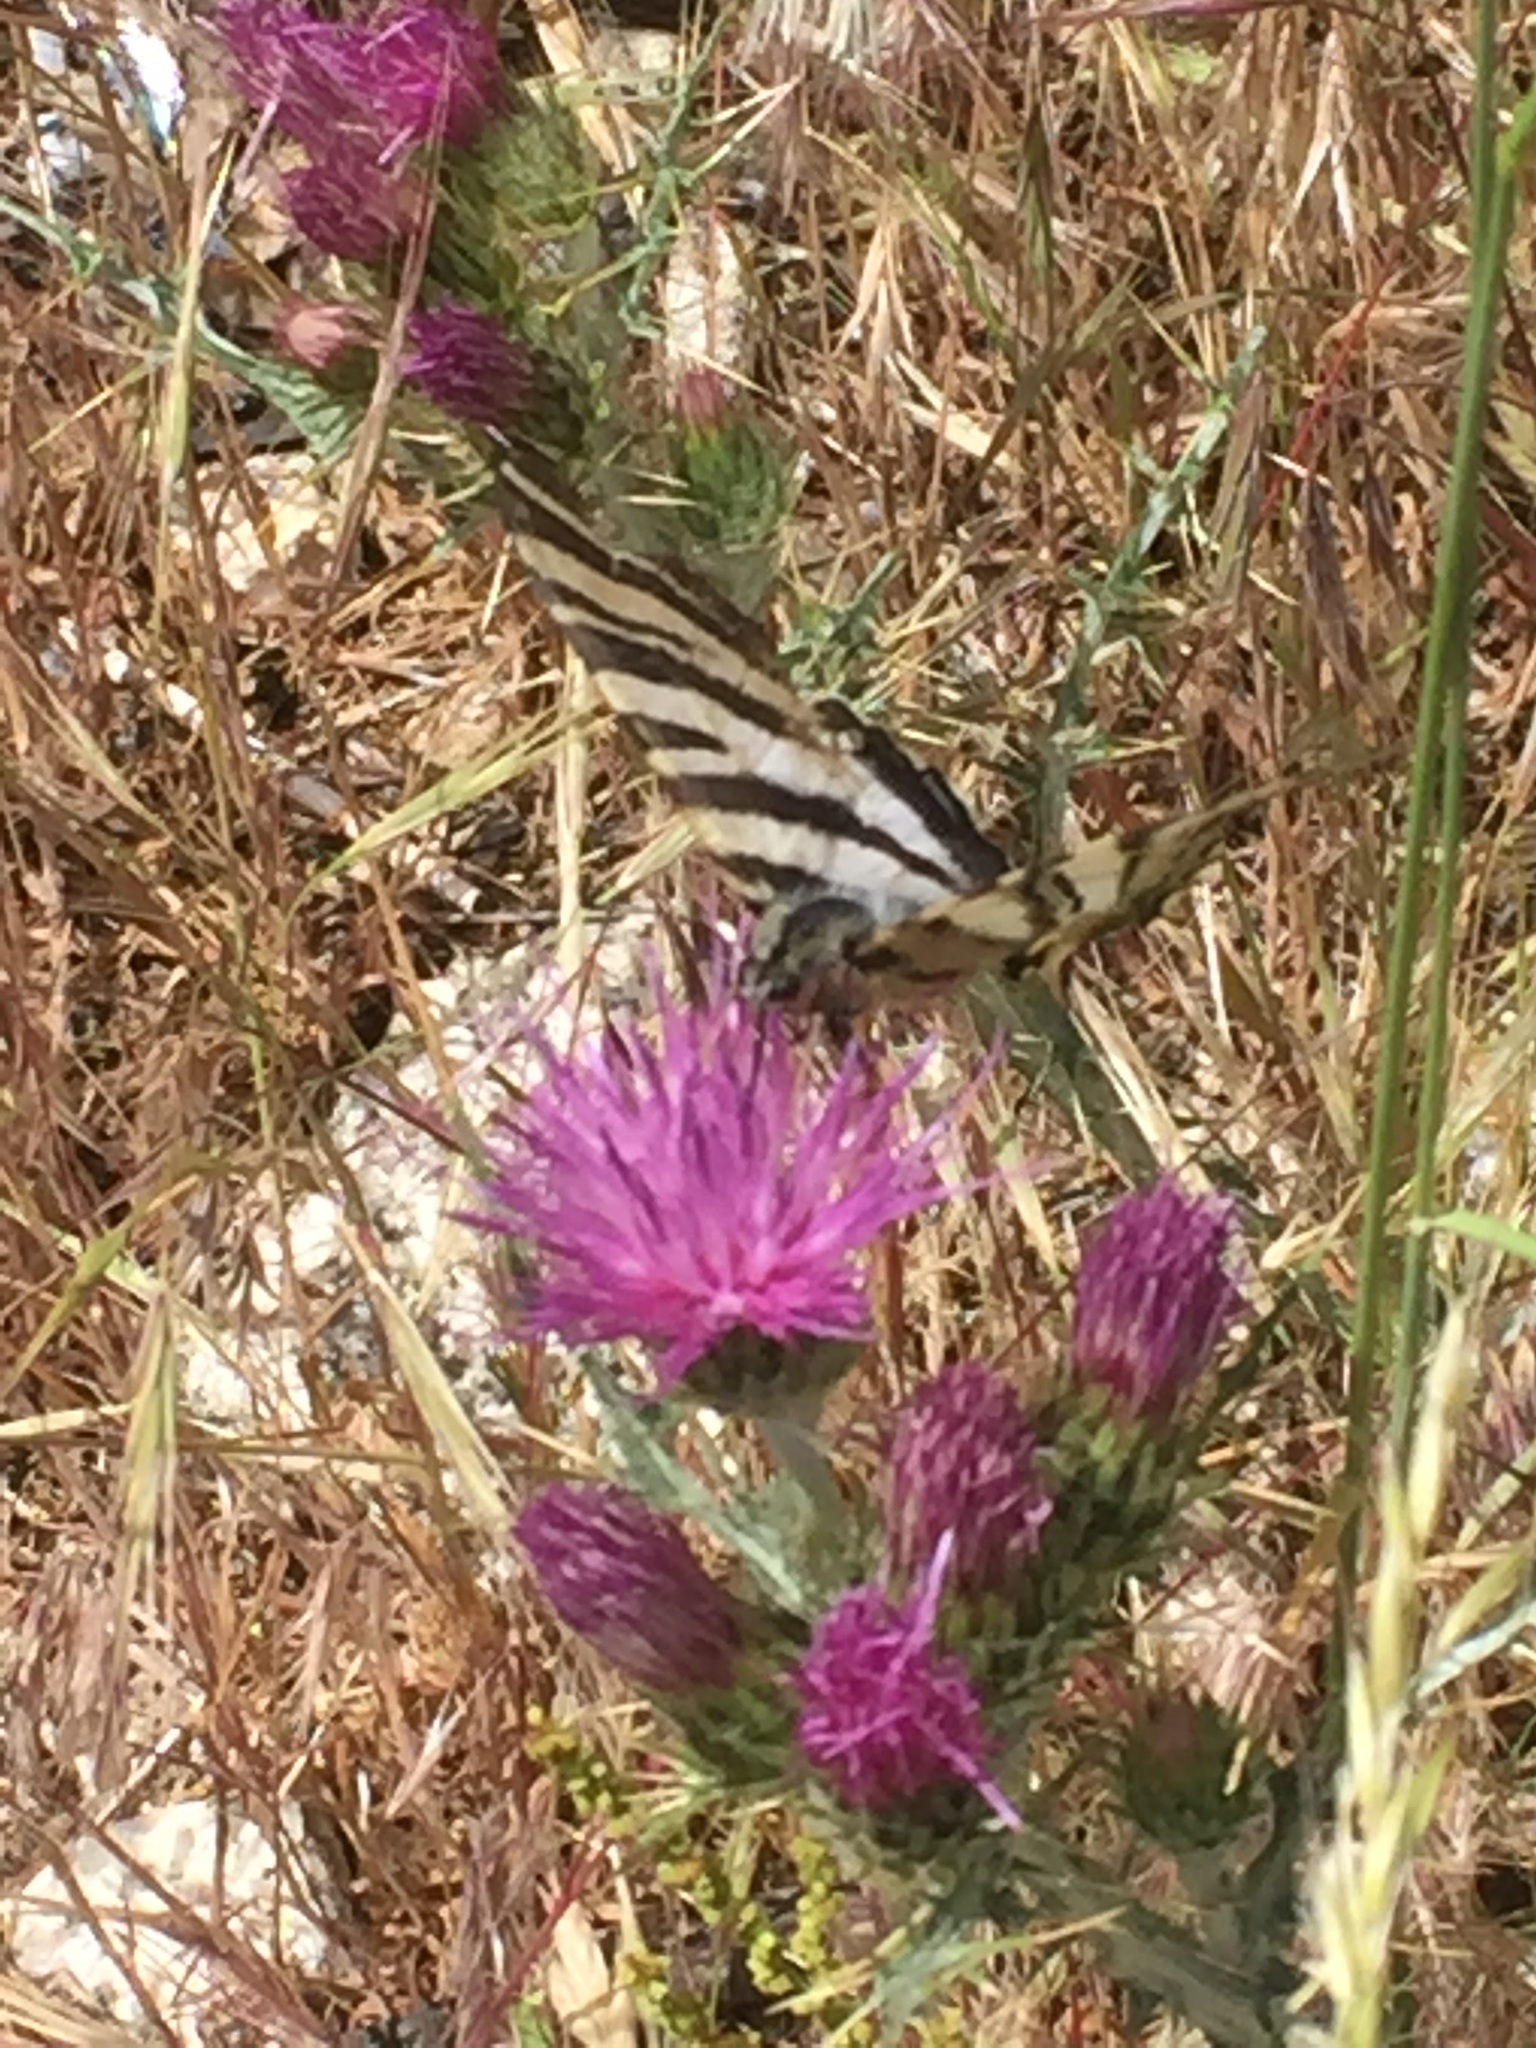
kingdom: Animalia
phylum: Arthropoda
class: Insecta
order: Lepidoptera
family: Papilionidae
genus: Iphiclides
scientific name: Iphiclides feisthamelii
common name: Iberian scarce swallowtail
